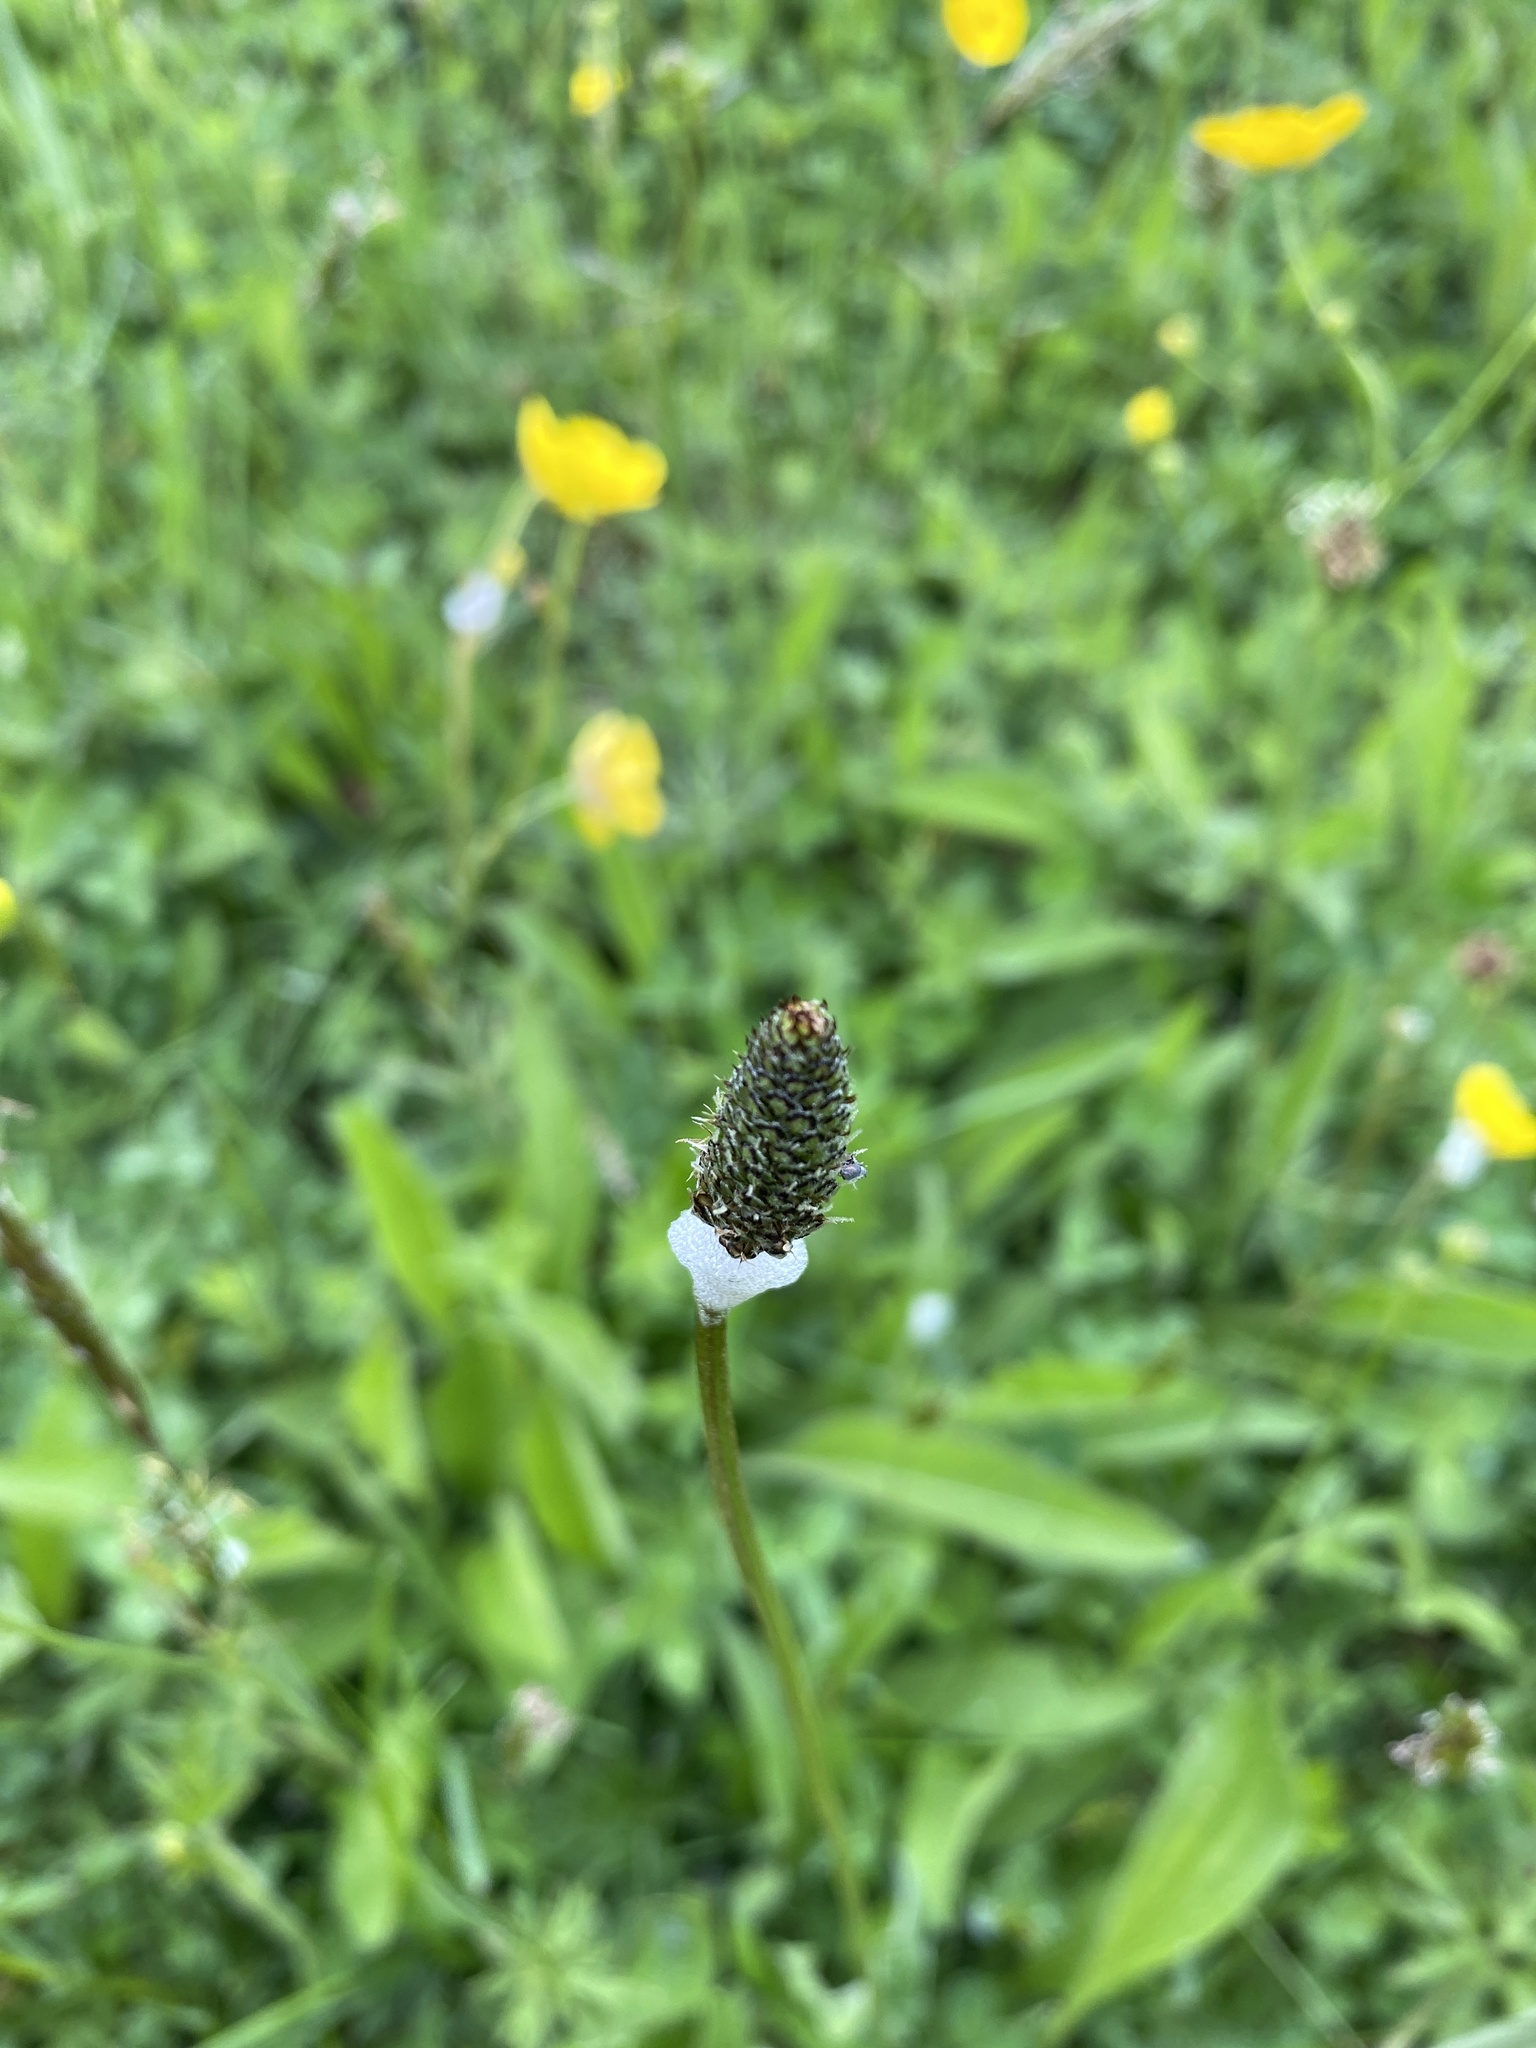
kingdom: Plantae
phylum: Tracheophyta
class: Magnoliopsida
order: Lamiales
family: Plantaginaceae
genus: Plantago
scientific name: Plantago lanceolata
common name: Ribwort plantain
